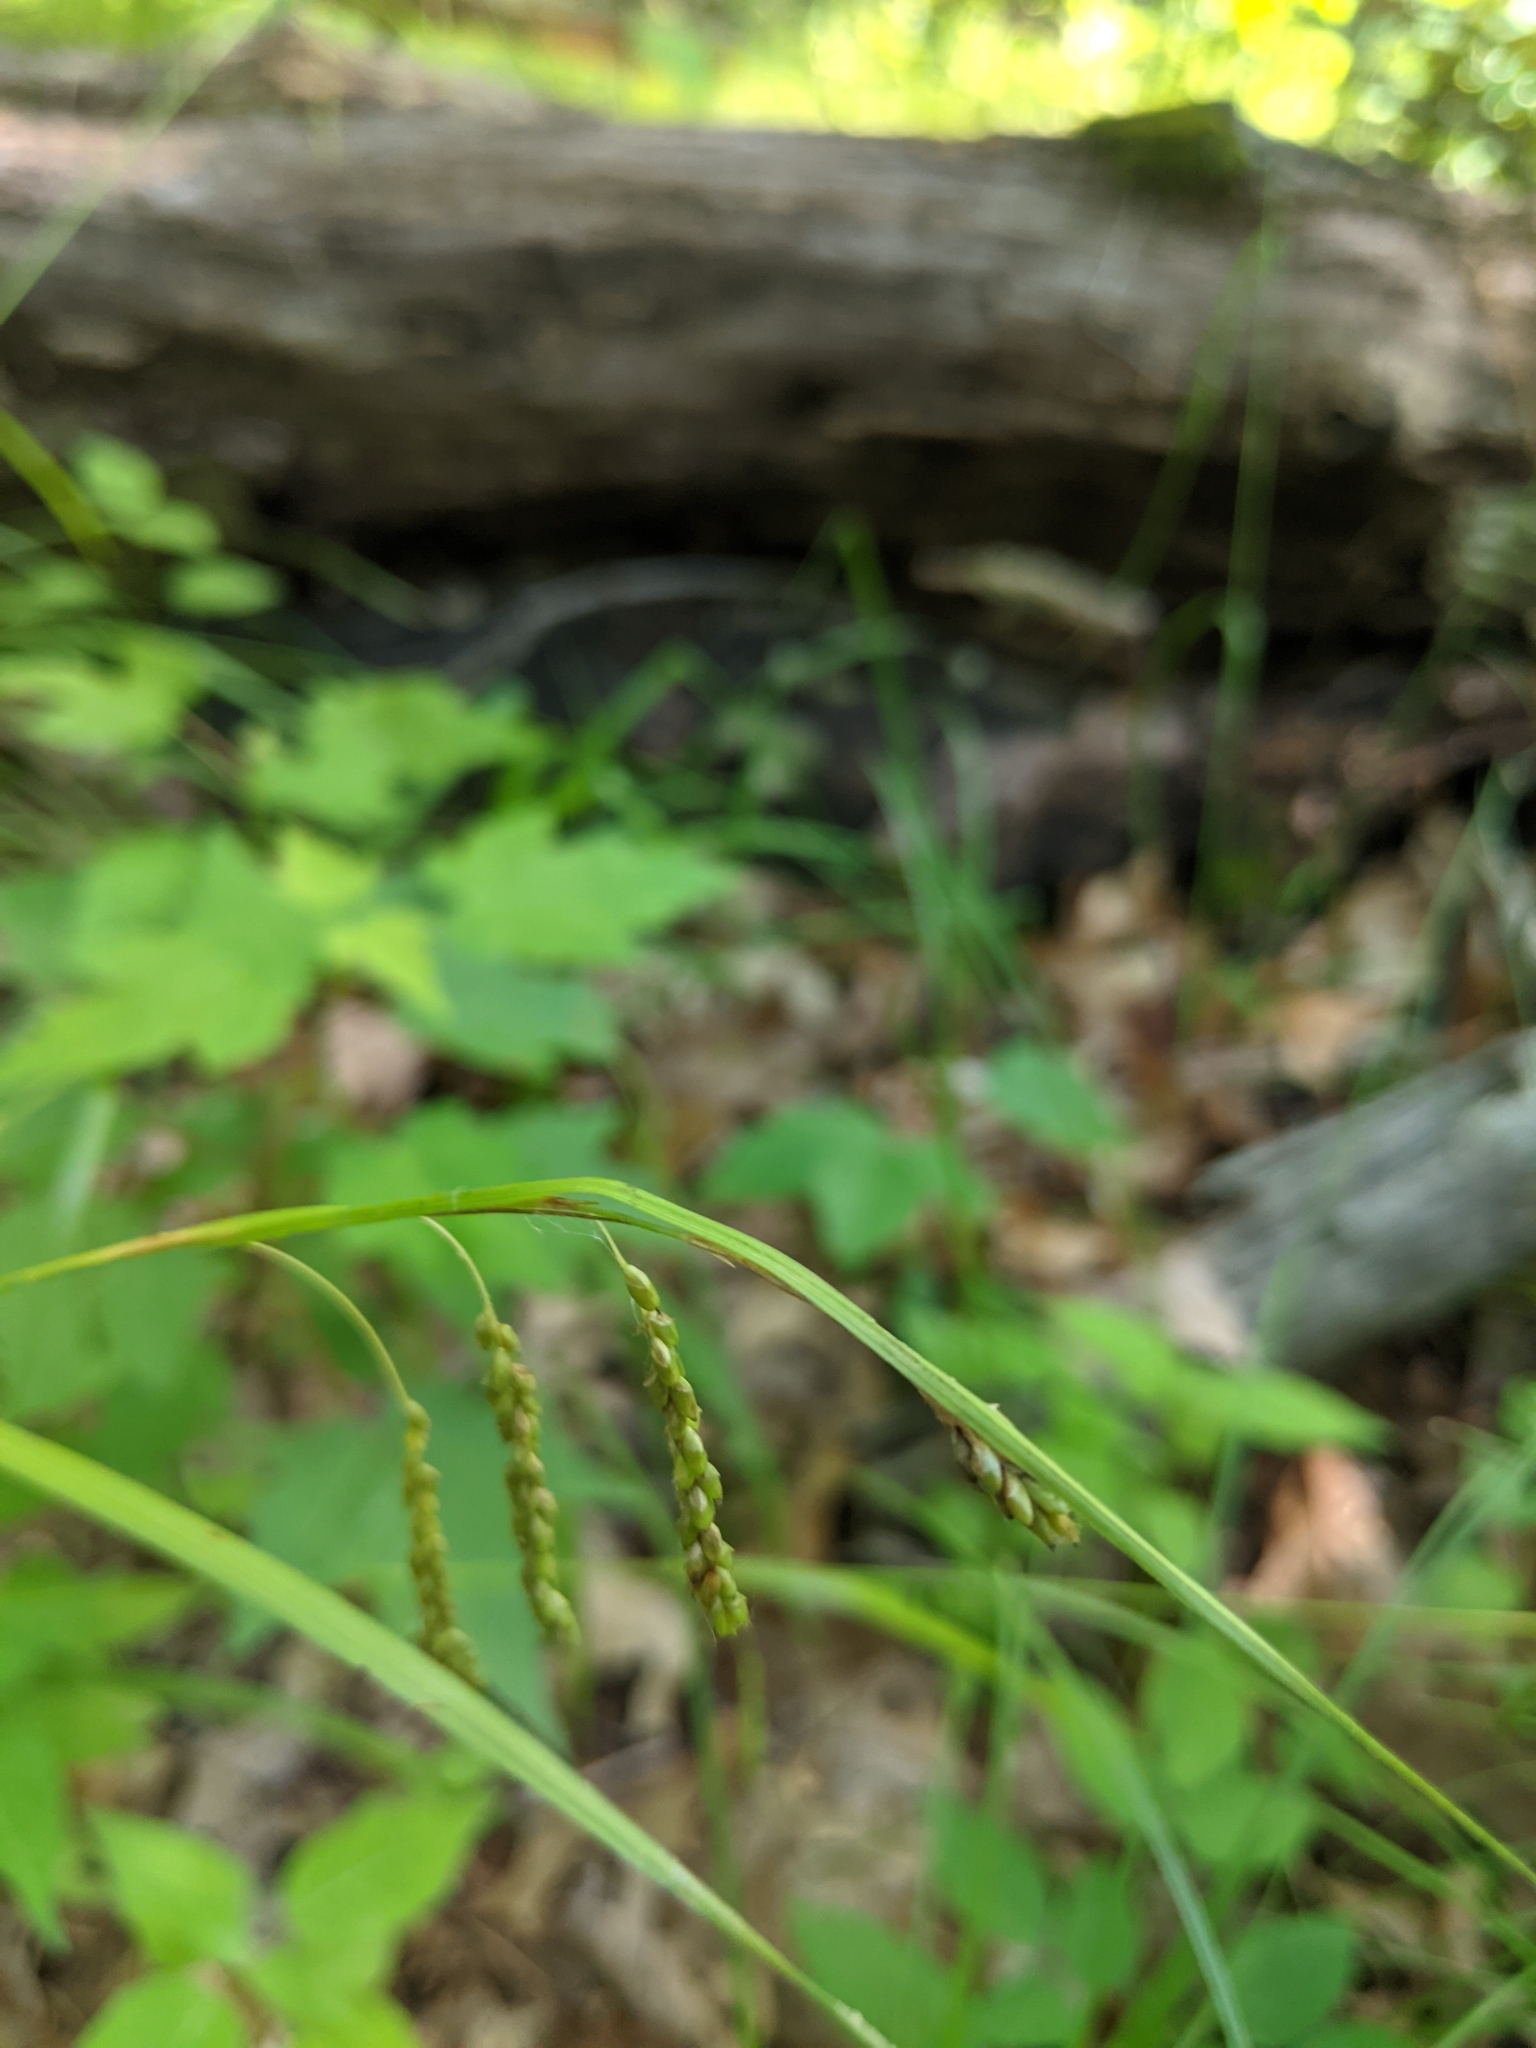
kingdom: Plantae
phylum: Tracheophyta
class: Liliopsida
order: Poales
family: Cyperaceae
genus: Carex
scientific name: Carex gracillima
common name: Graceful sedge
